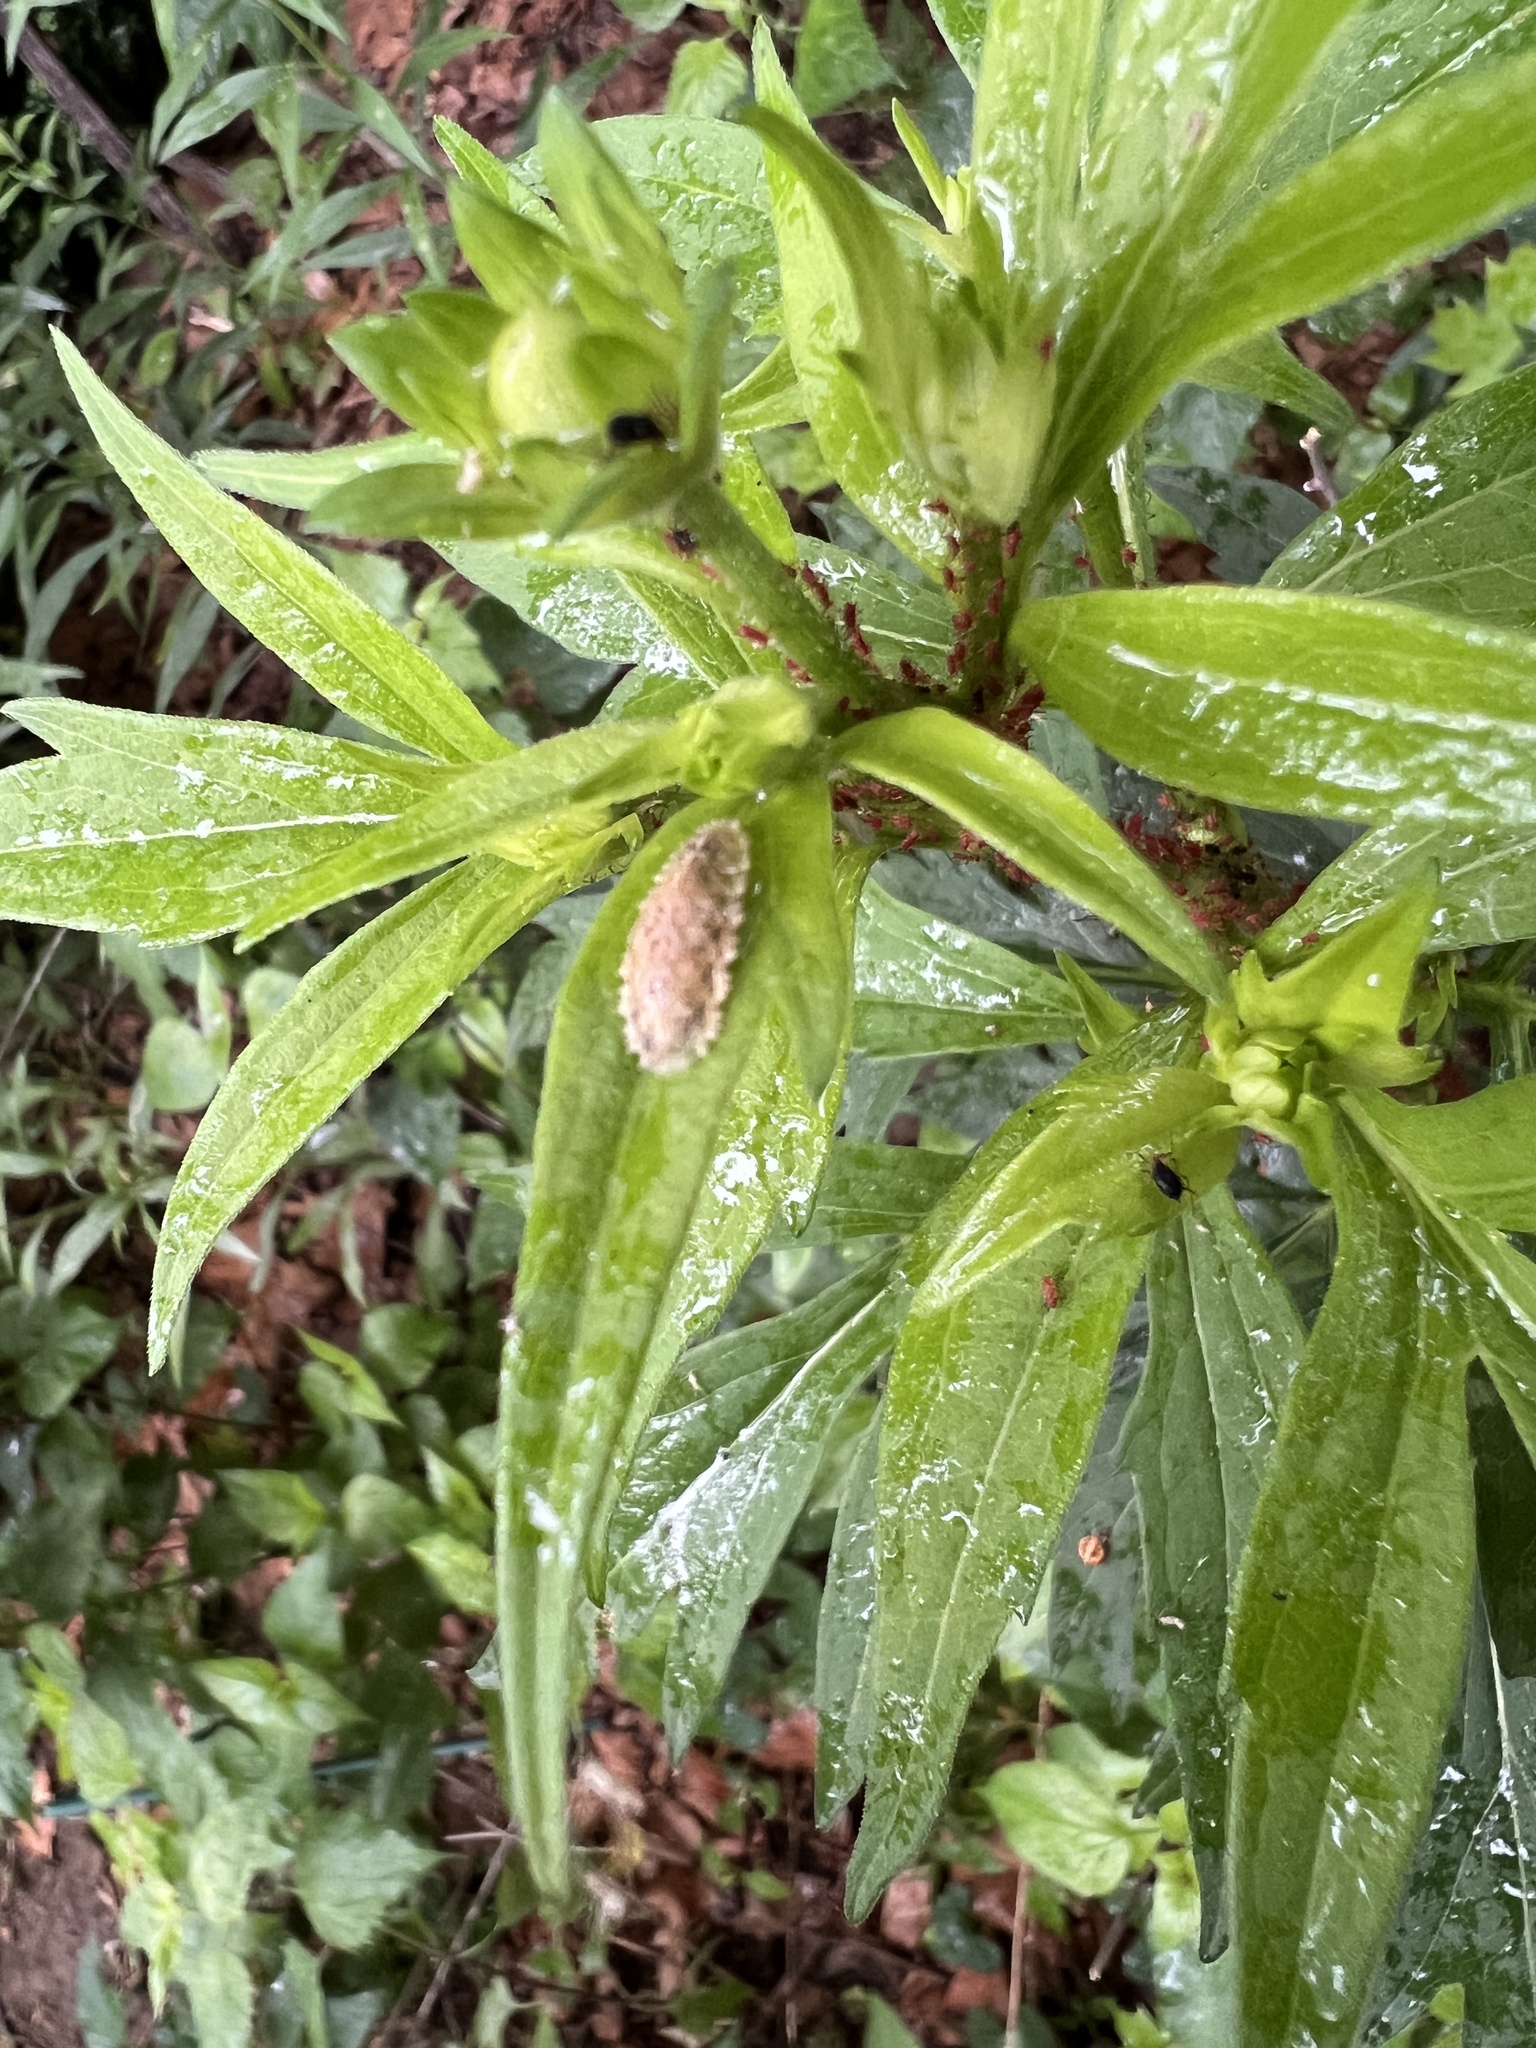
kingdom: Animalia
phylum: Arthropoda
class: Insecta
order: Diptera
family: Syrphidae
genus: Epistrophella
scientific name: Epistrophella emarginata
